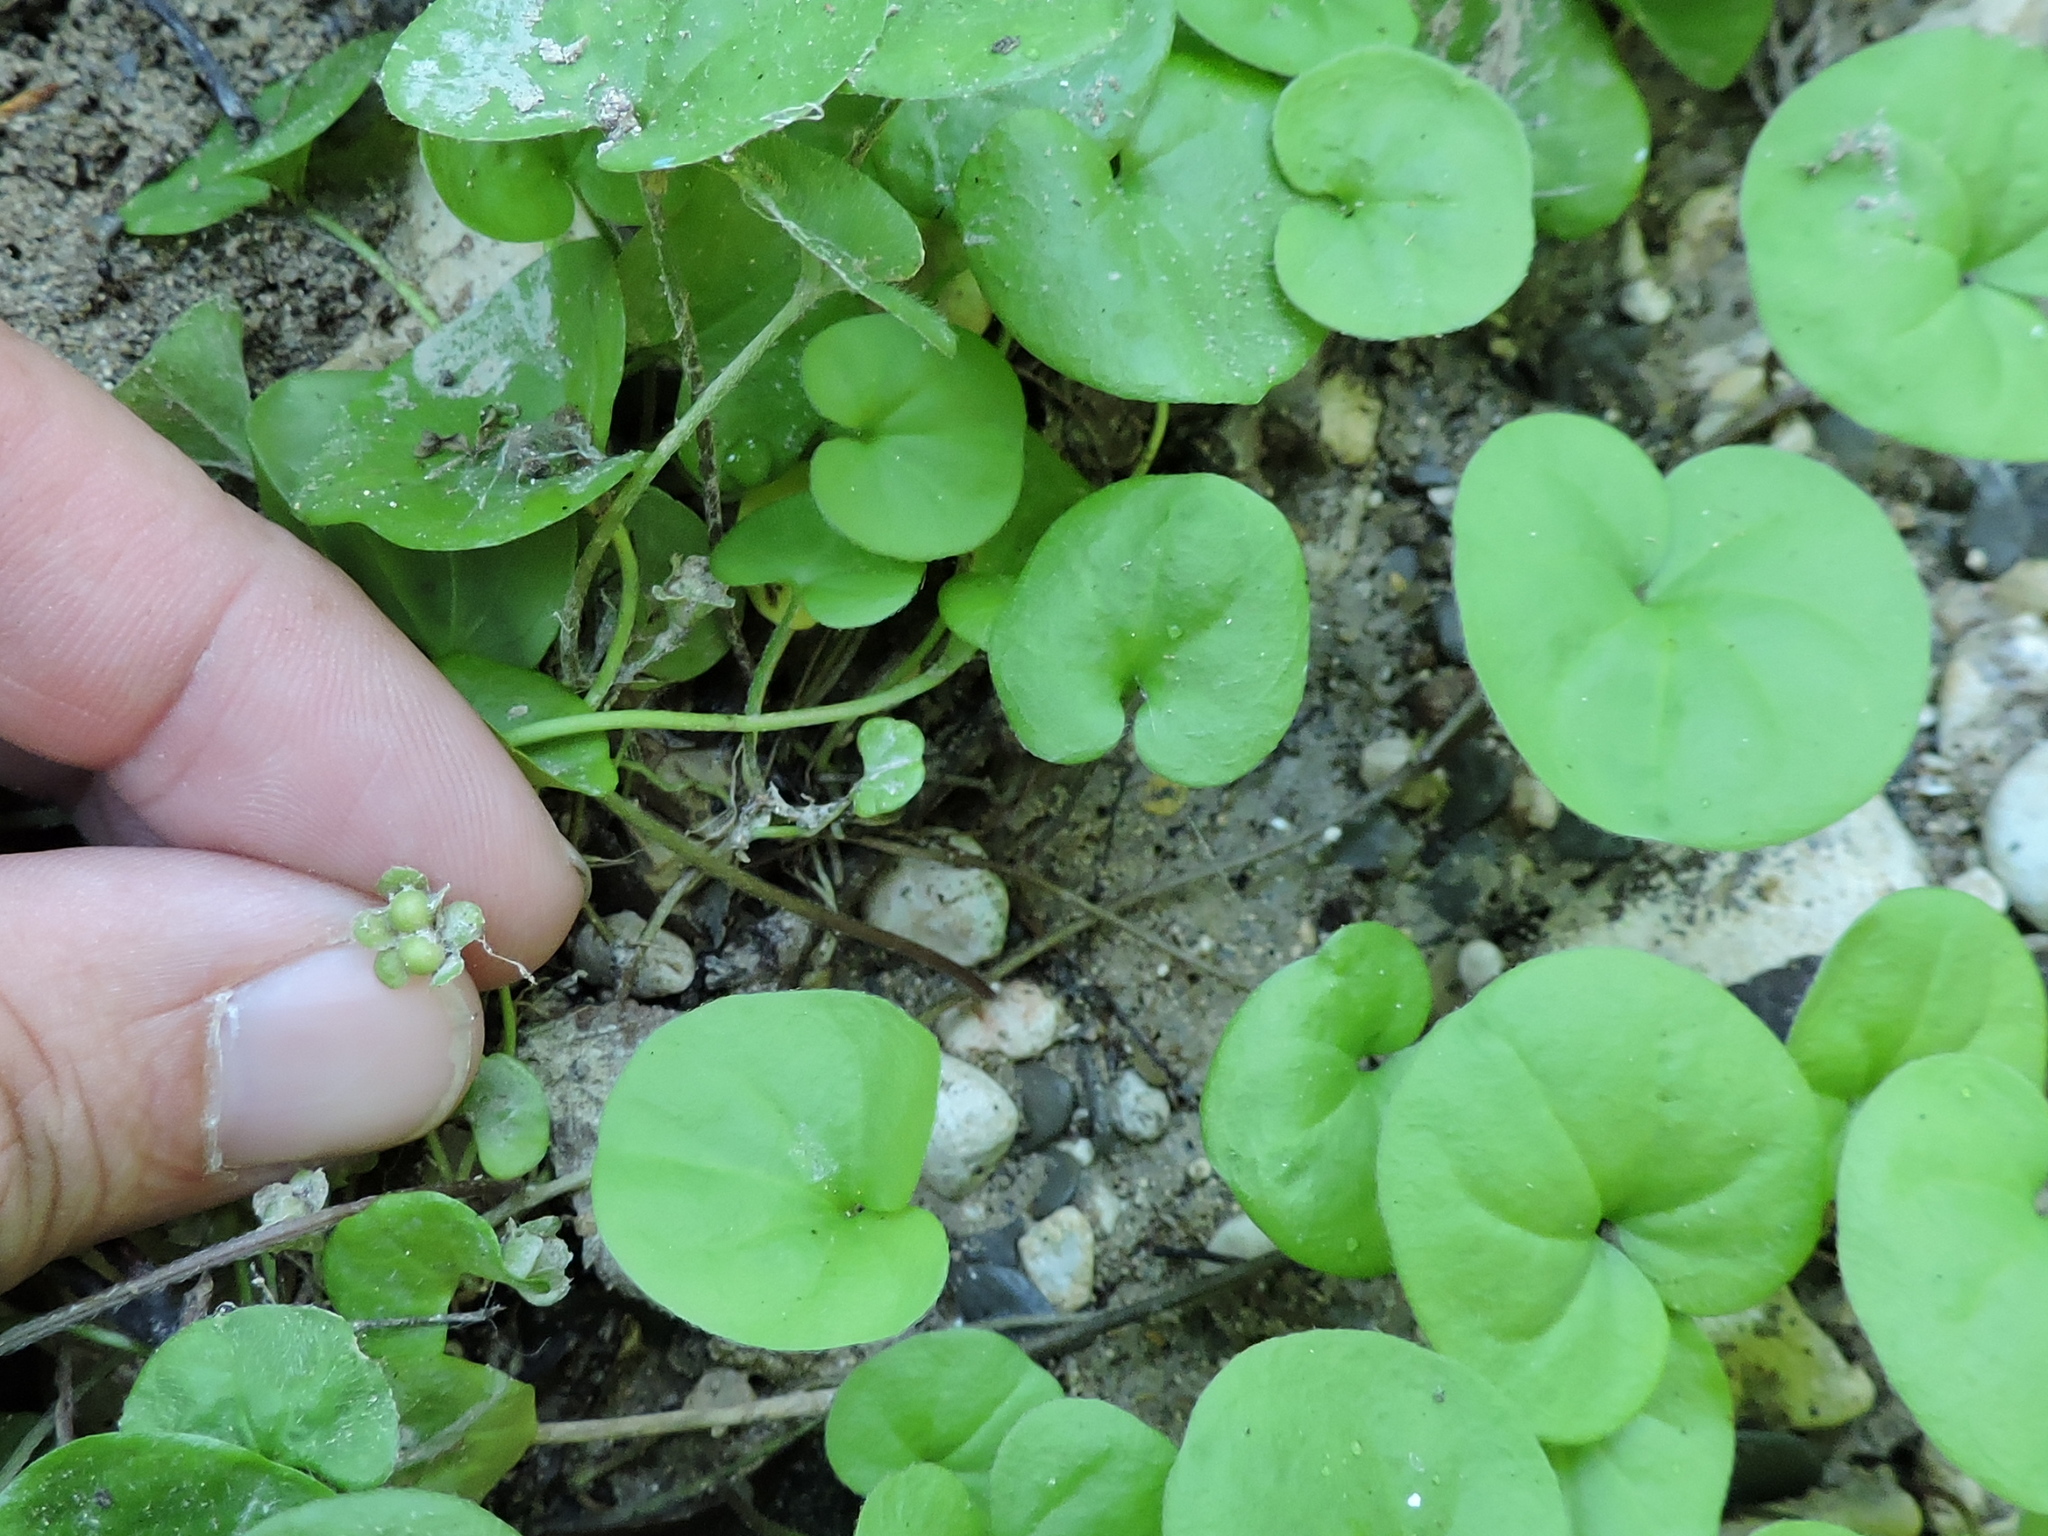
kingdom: Plantae
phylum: Tracheophyta
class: Magnoliopsida
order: Solanales
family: Convolvulaceae
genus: Dichondra
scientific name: Dichondra carolinensis
